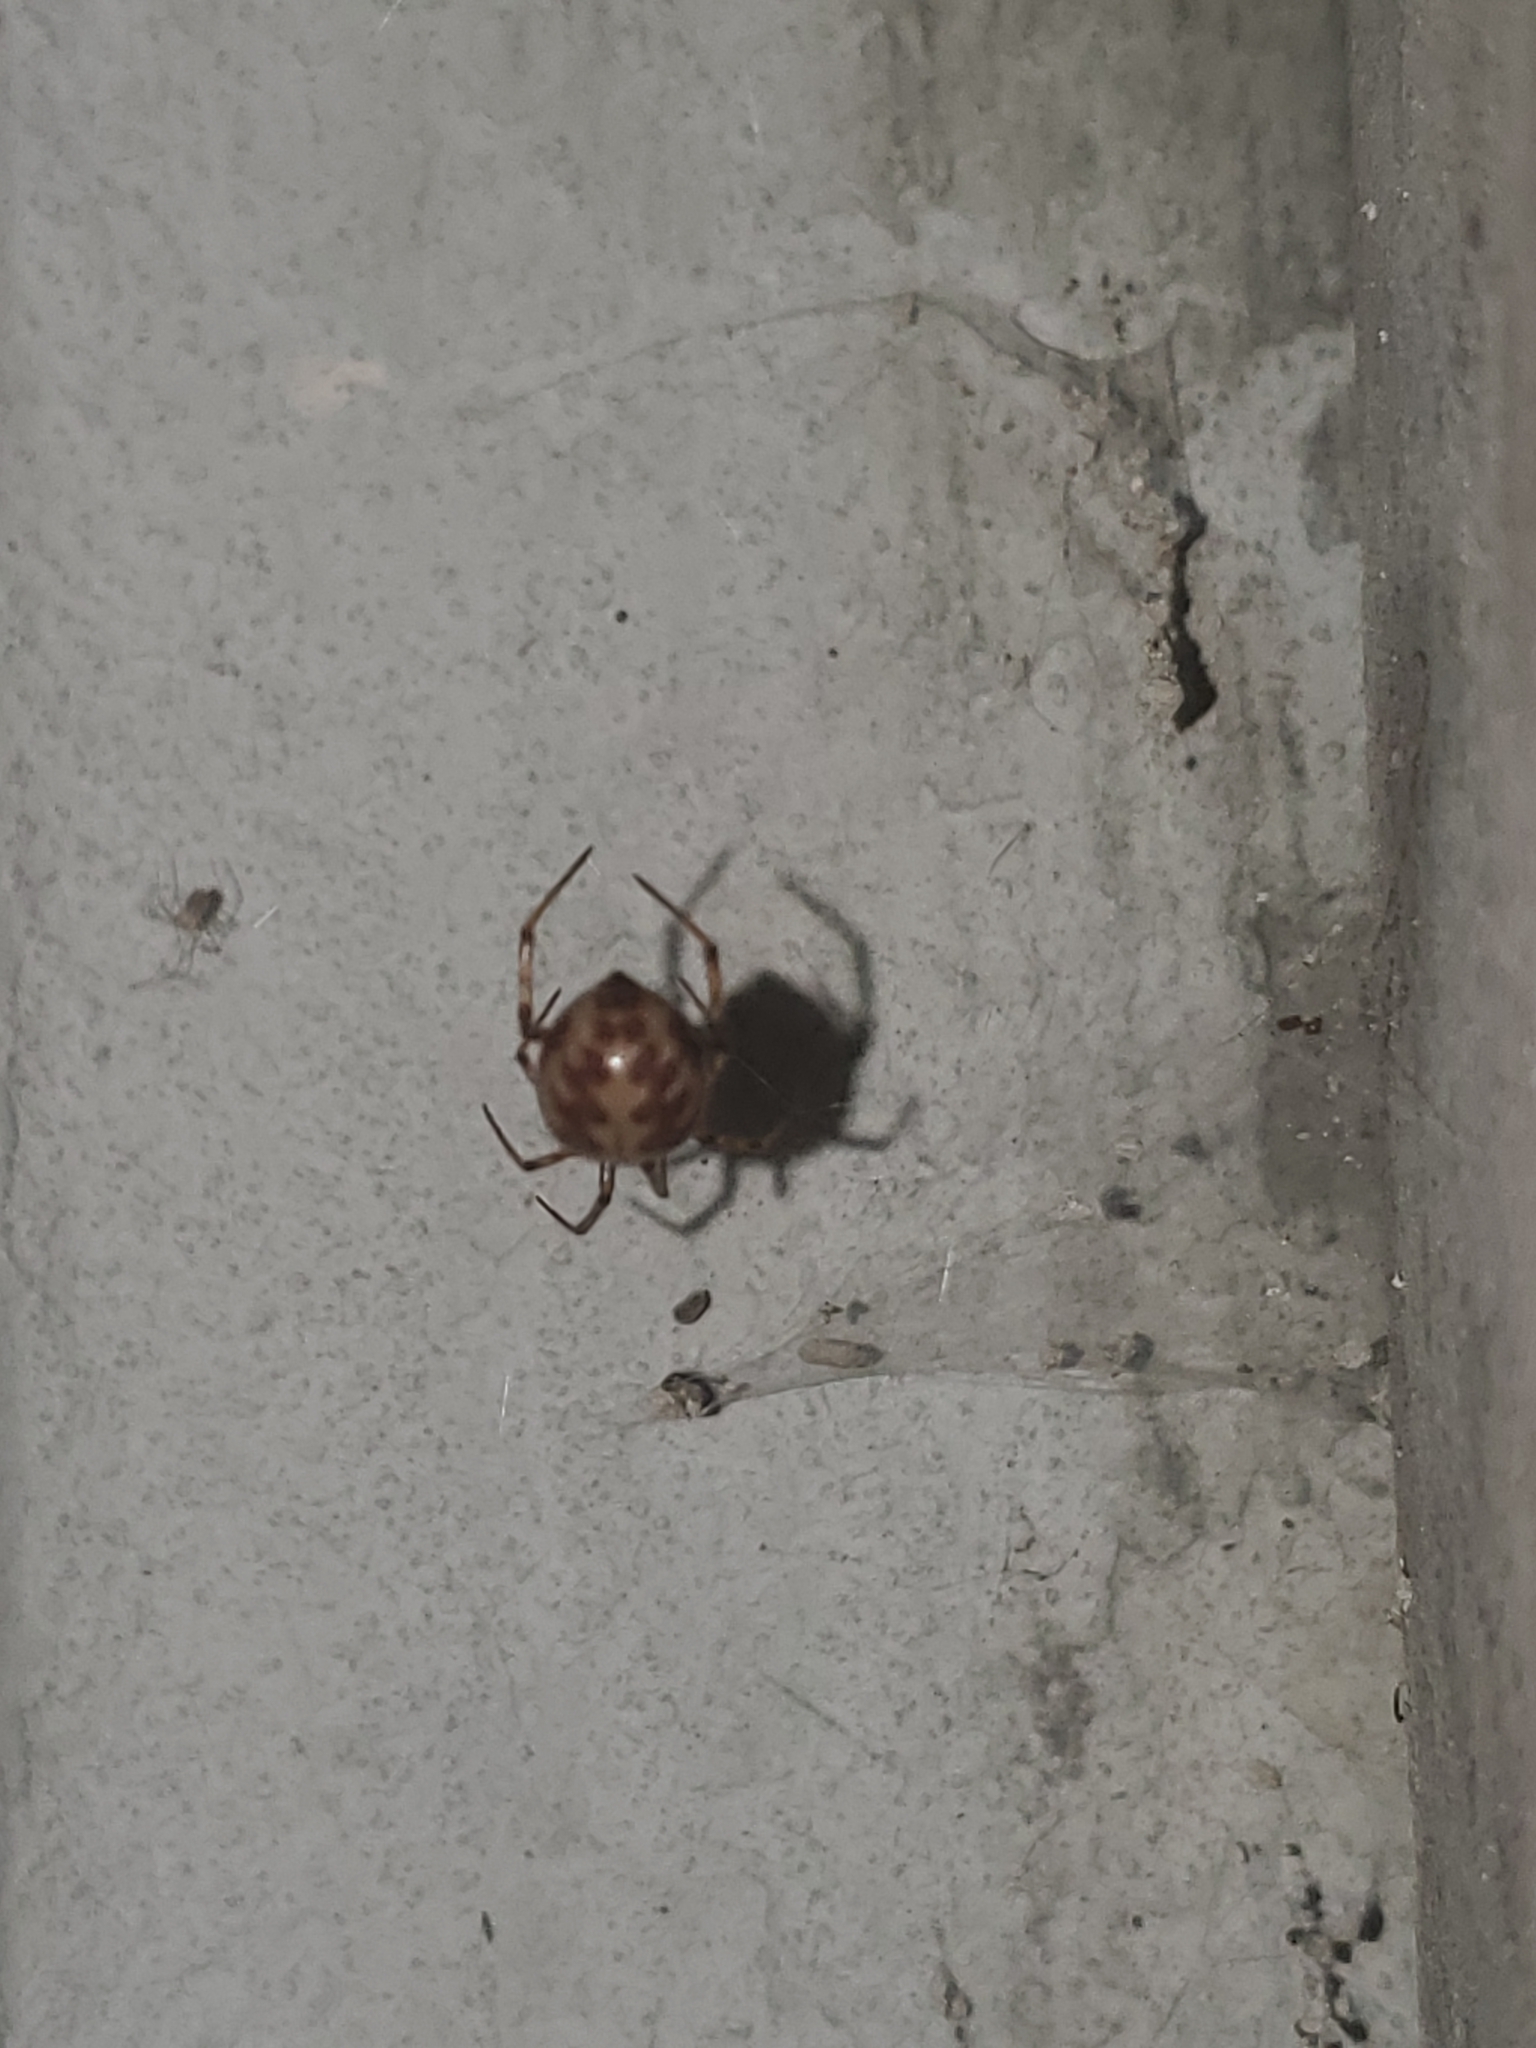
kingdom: Animalia
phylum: Arthropoda
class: Arachnida
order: Araneae
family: Theridiidae
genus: Steatoda
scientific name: Steatoda triangulosa
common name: Triangulate bud spider
